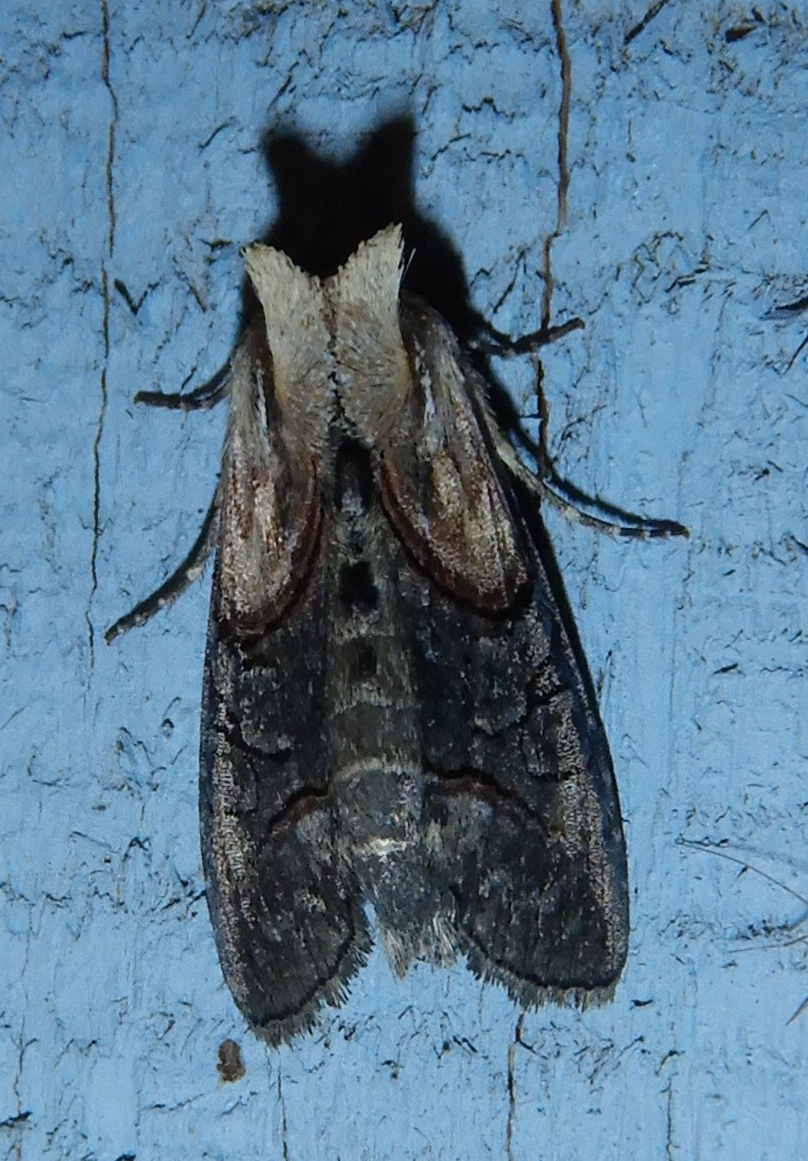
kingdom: Animalia
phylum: Arthropoda
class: Insecta
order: Lepidoptera
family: Noctuidae
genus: Abrostola
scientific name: Abrostola ovalis
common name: Oval abrostola
